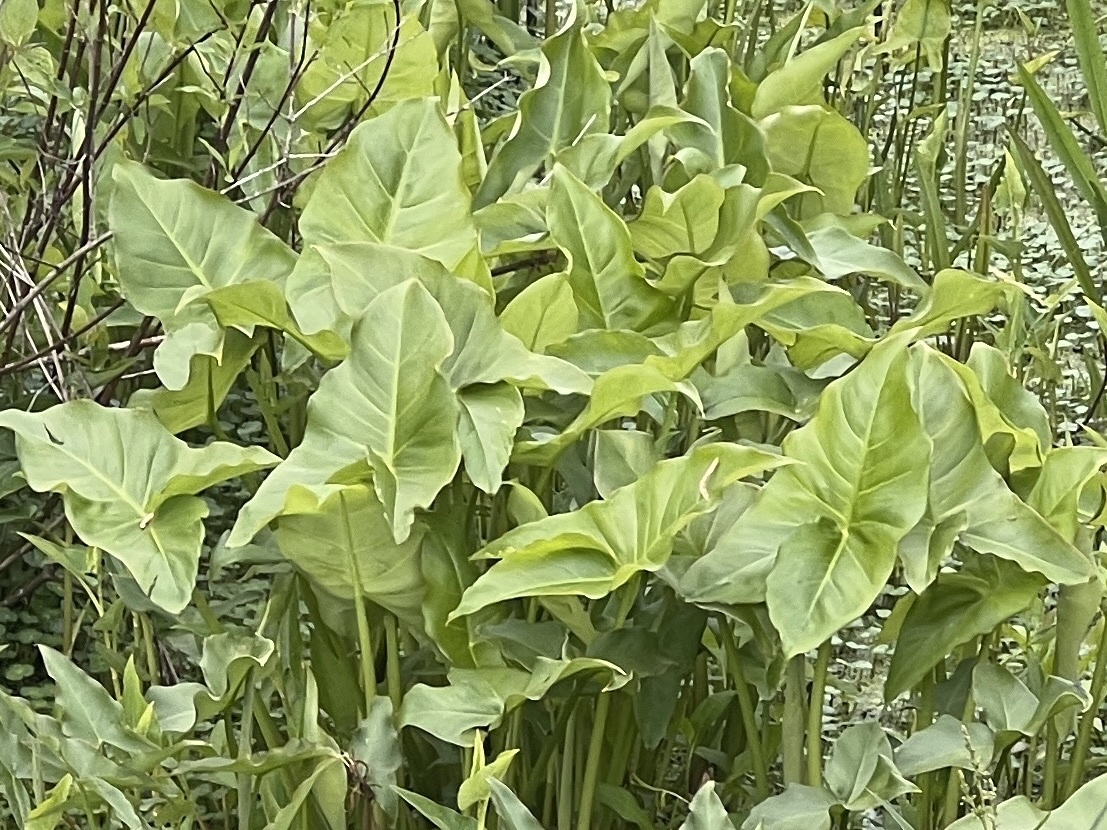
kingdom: Plantae
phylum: Tracheophyta
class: Liliopsida
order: Alismatales
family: Araceae
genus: Peltandra
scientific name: Peltandra virginica
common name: Arrow arum
